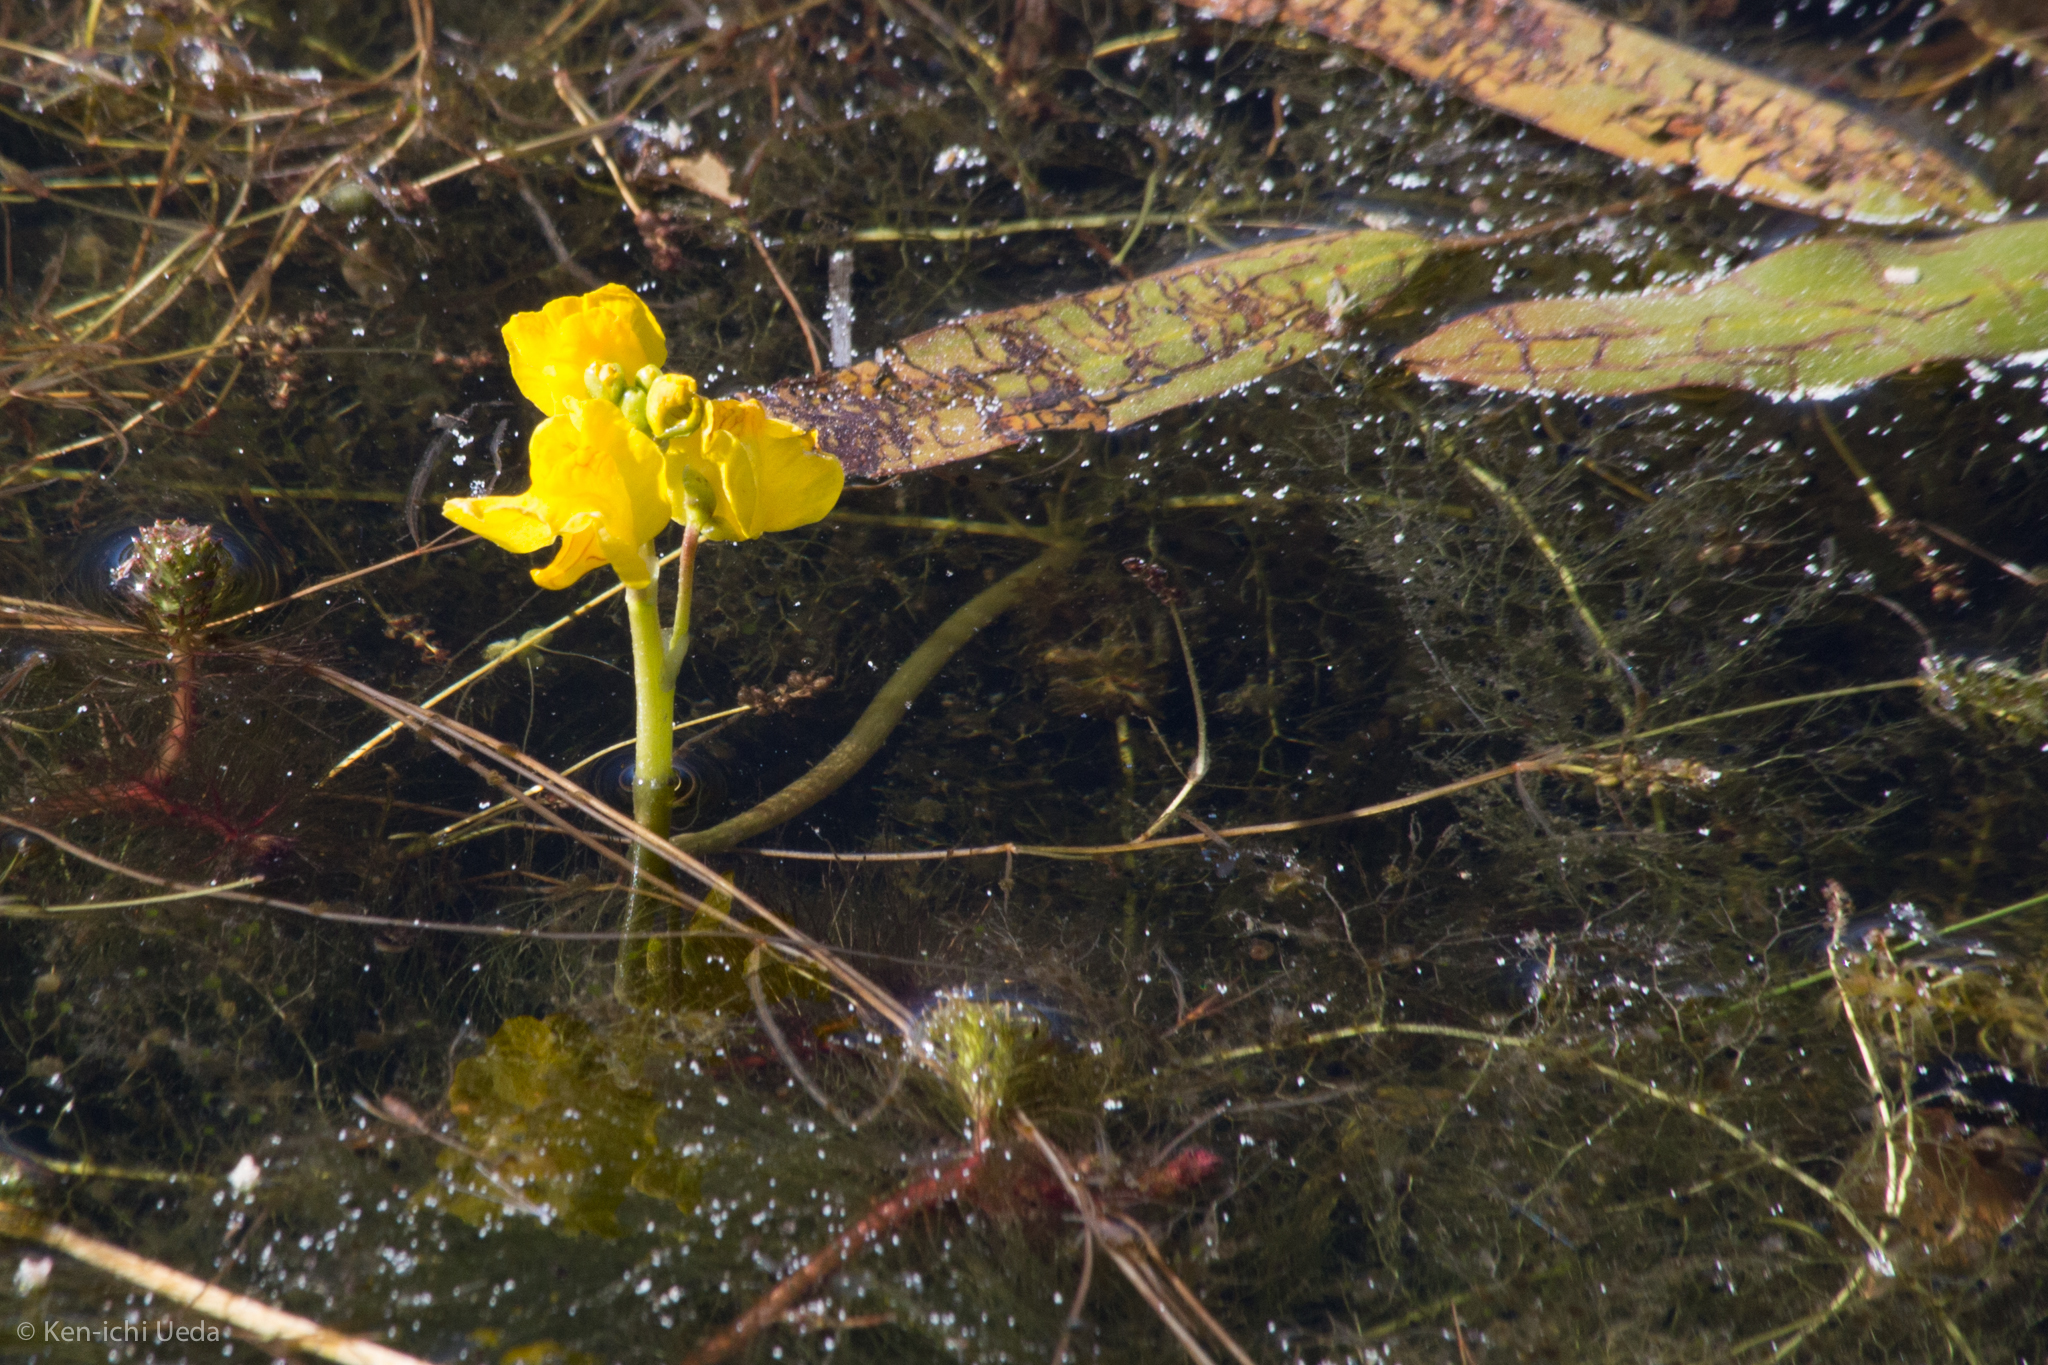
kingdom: Plantae
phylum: Tracheophyta
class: Magnoliopsida
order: Lamiales
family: Lentibulariaceae
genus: Utricularia
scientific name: Utricularia macrorhiza
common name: Common bladderwort
